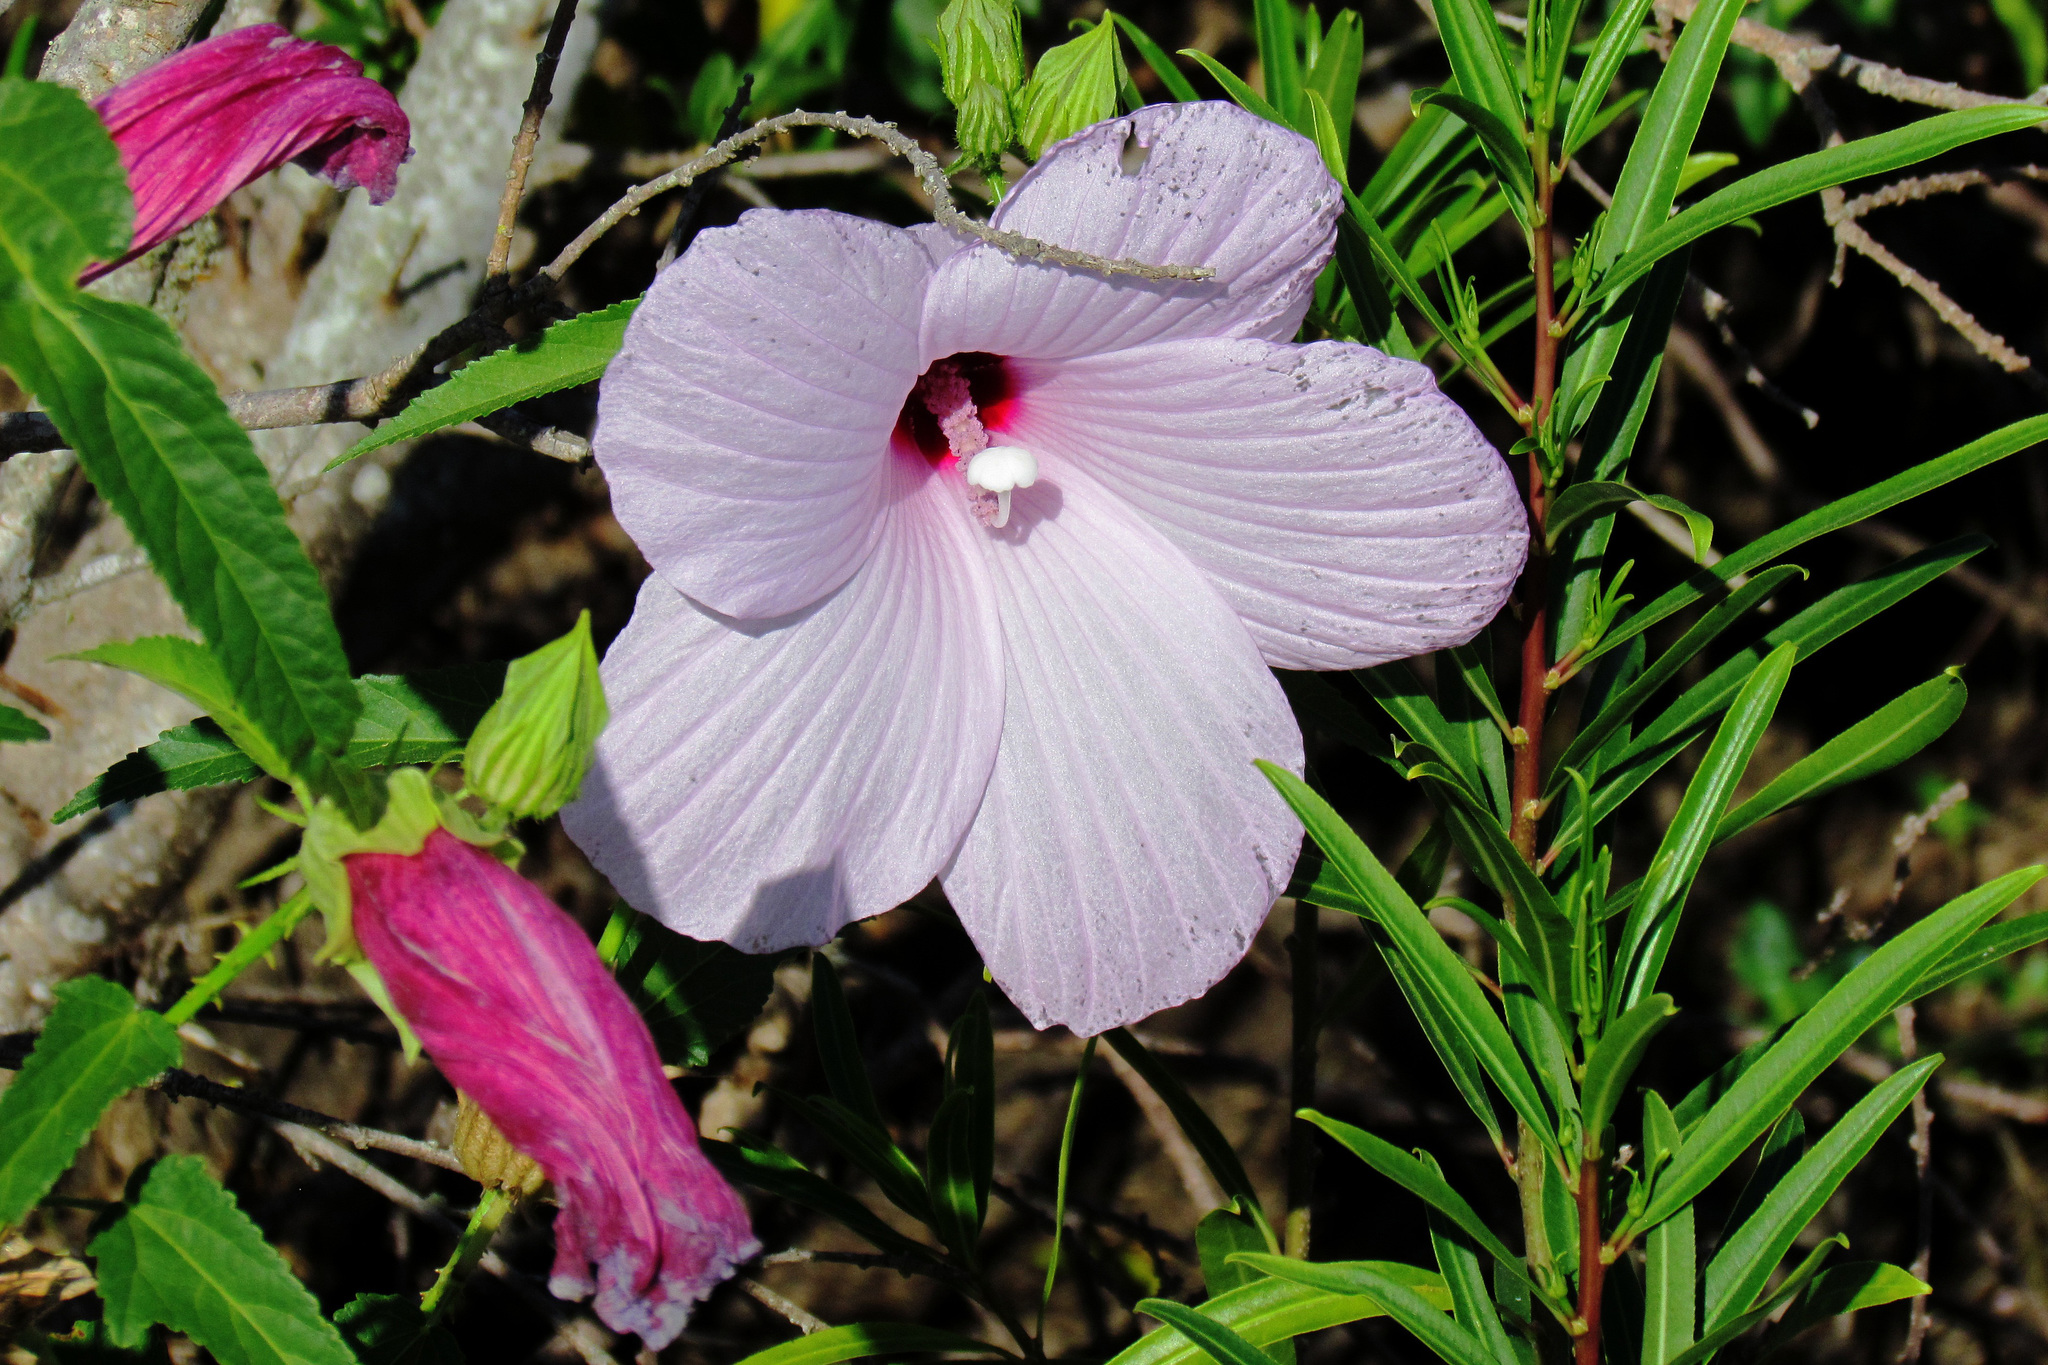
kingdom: Plantae
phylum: Tracheophyta
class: Magnoliopsida
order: Malvales
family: Malvaceae
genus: Hibiscus
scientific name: Hibiscus striatus
